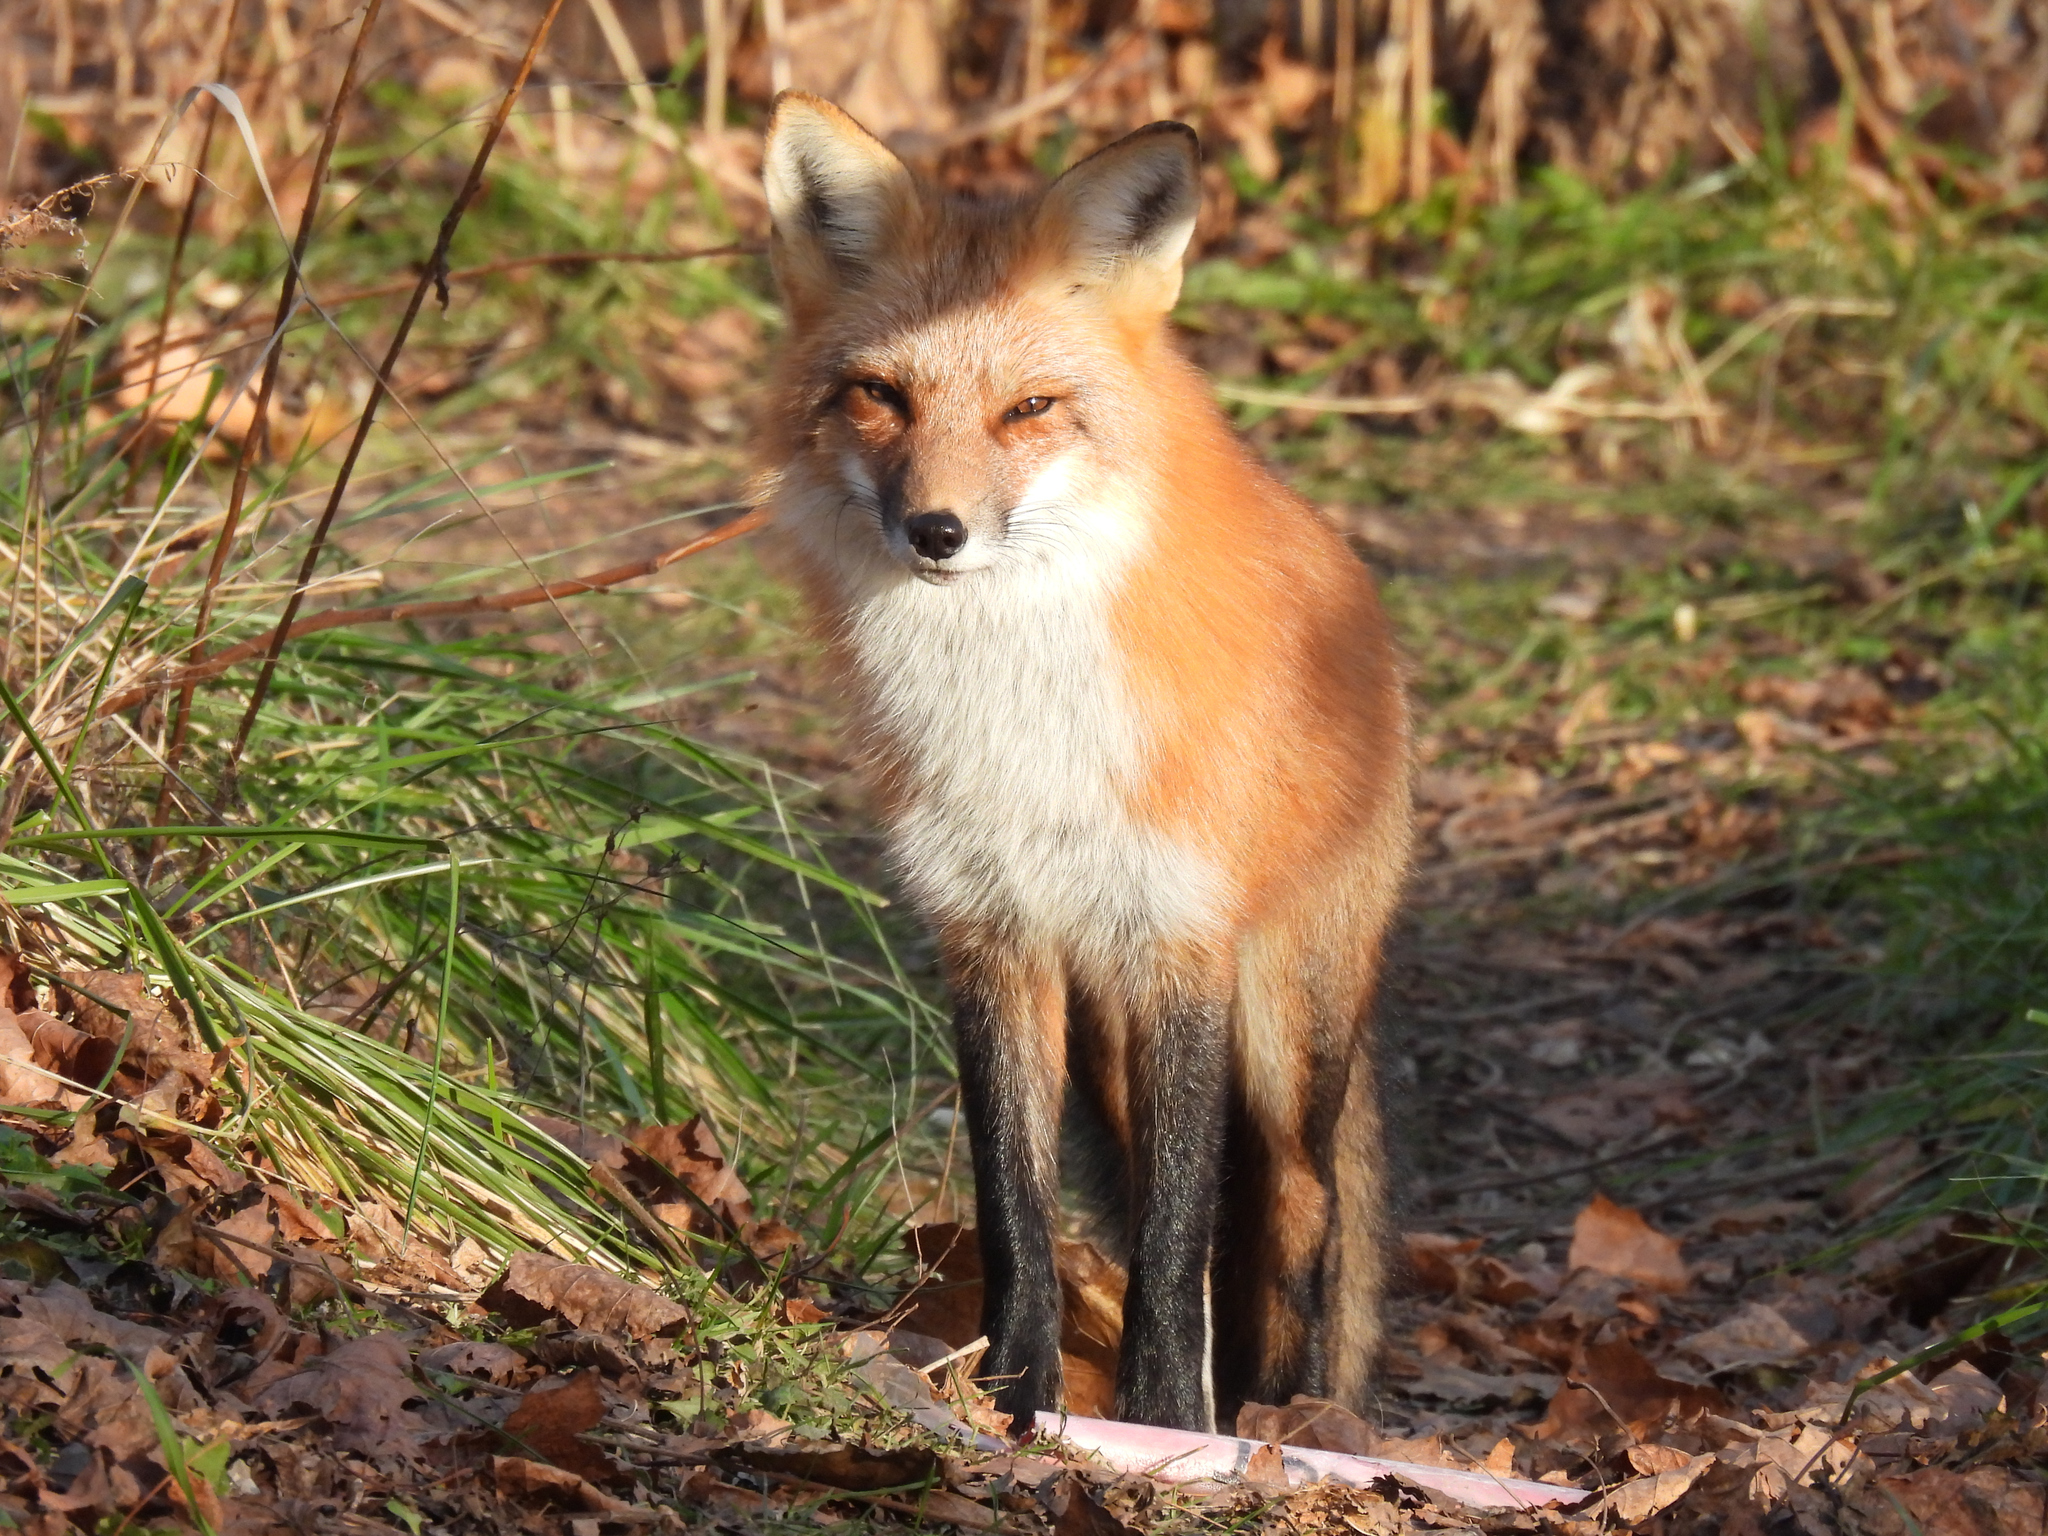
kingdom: Animalia
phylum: Chordata
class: Mammalia
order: Carnivora
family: Canidae
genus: Vulpes
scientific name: Vulpes vulpes
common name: Red fox
